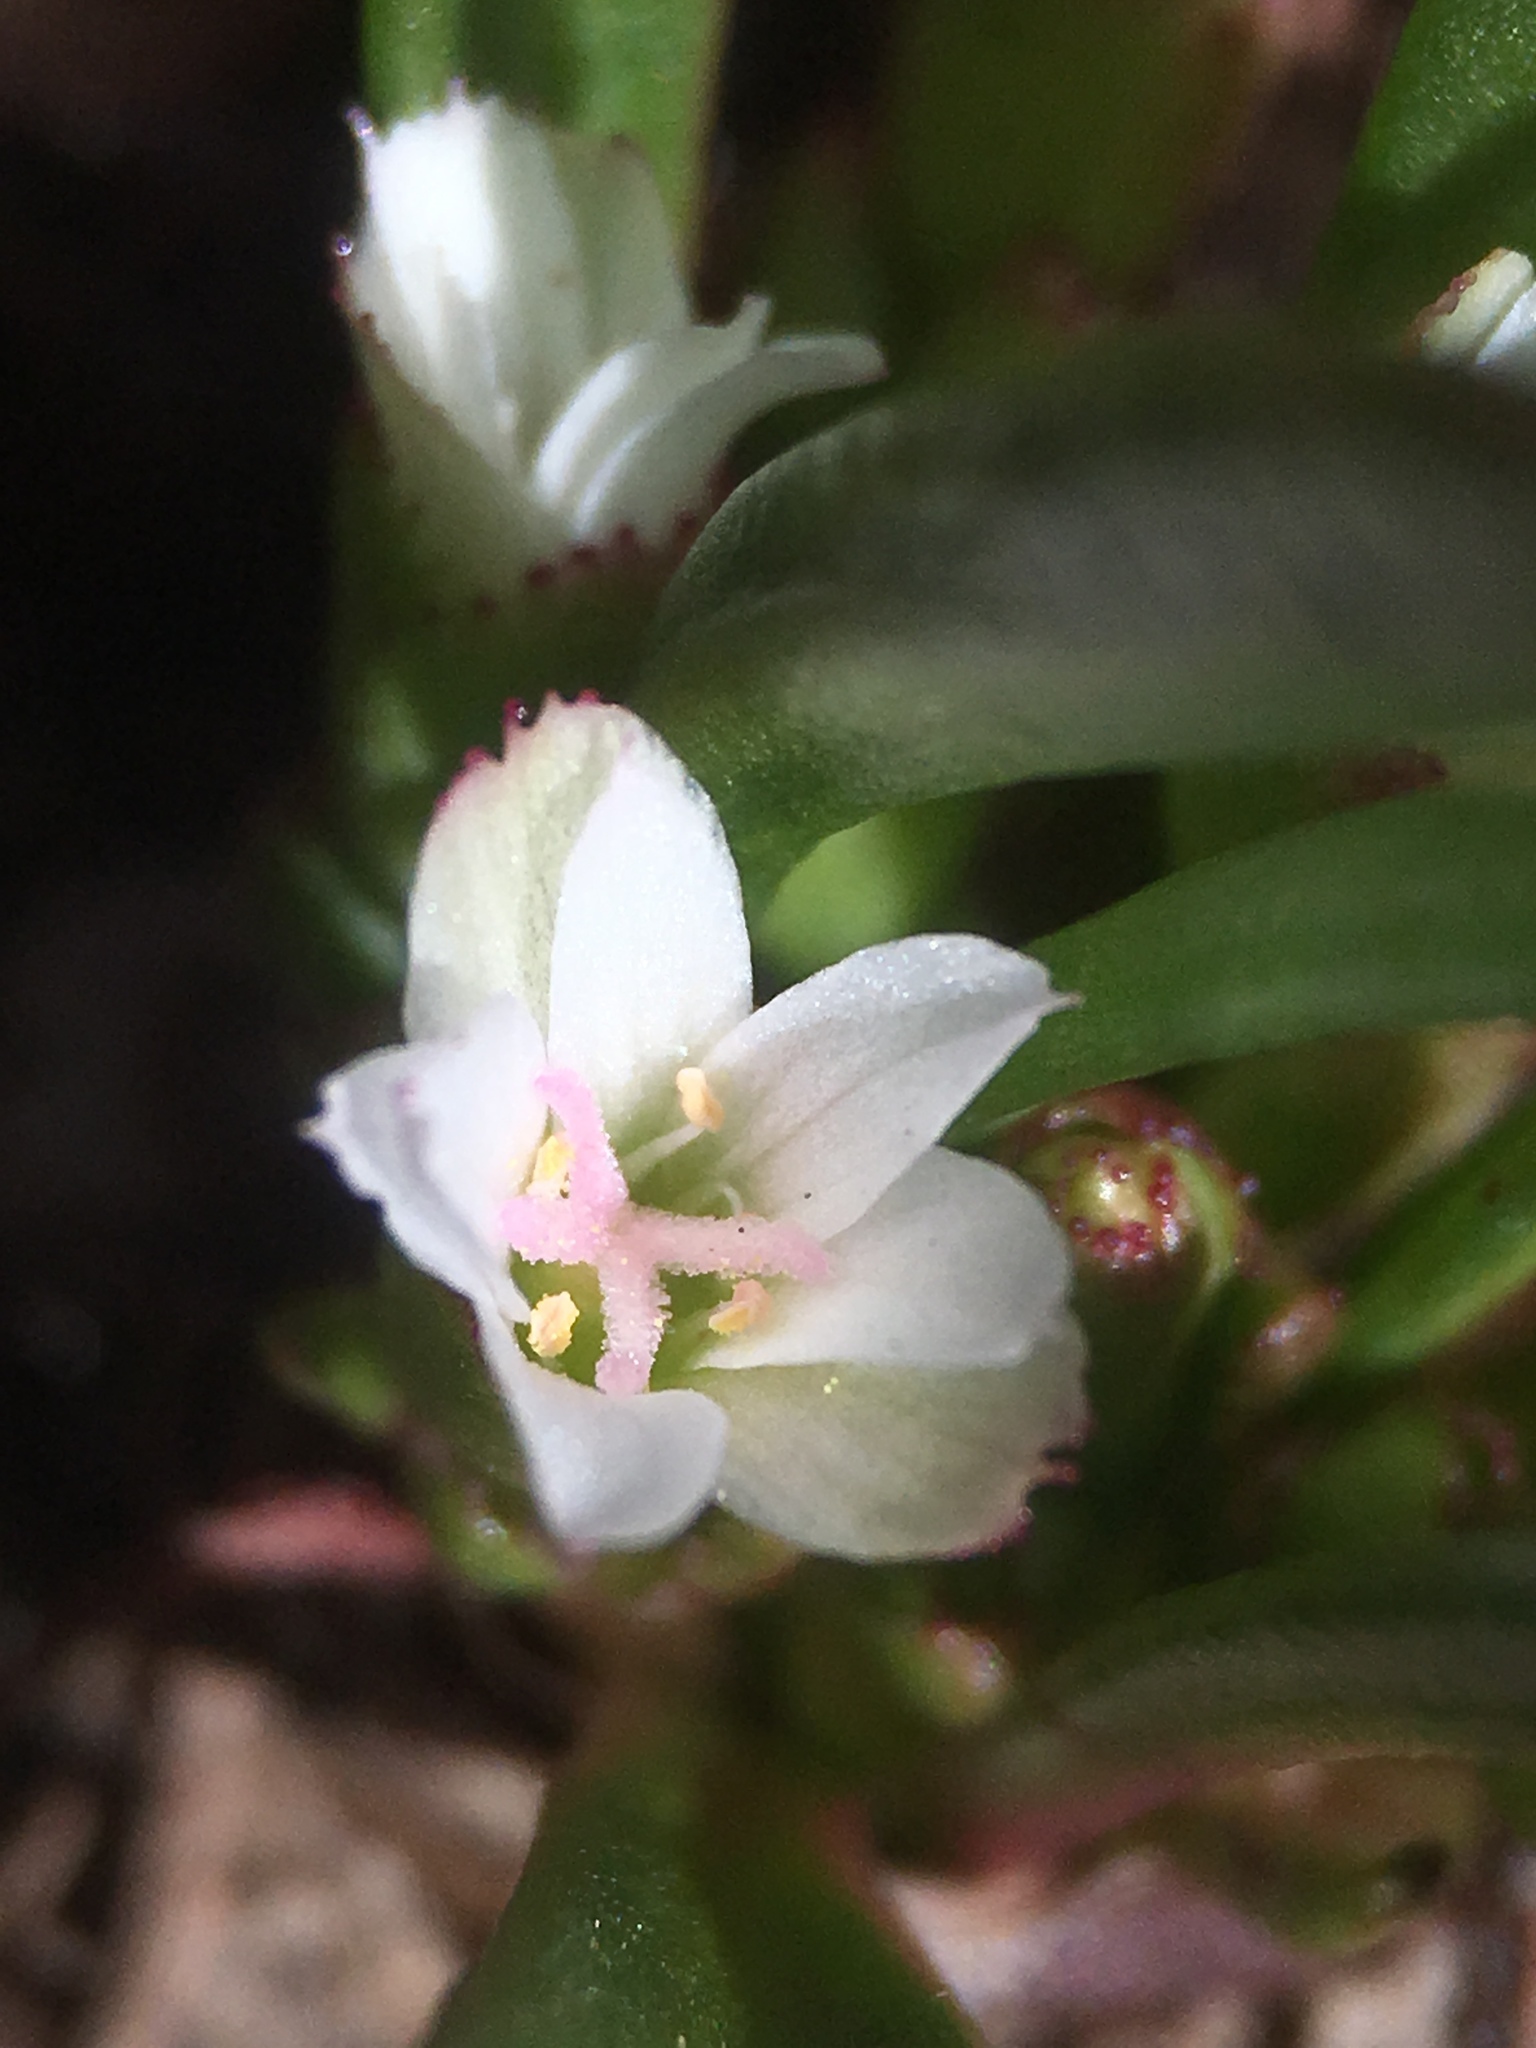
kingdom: Plantae
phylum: Tracheophyta
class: Magnoliopsida
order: Caryophyllales
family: Montiaceae
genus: Lewisia
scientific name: Lewisia pygmaea
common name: Alpine bitterroot
